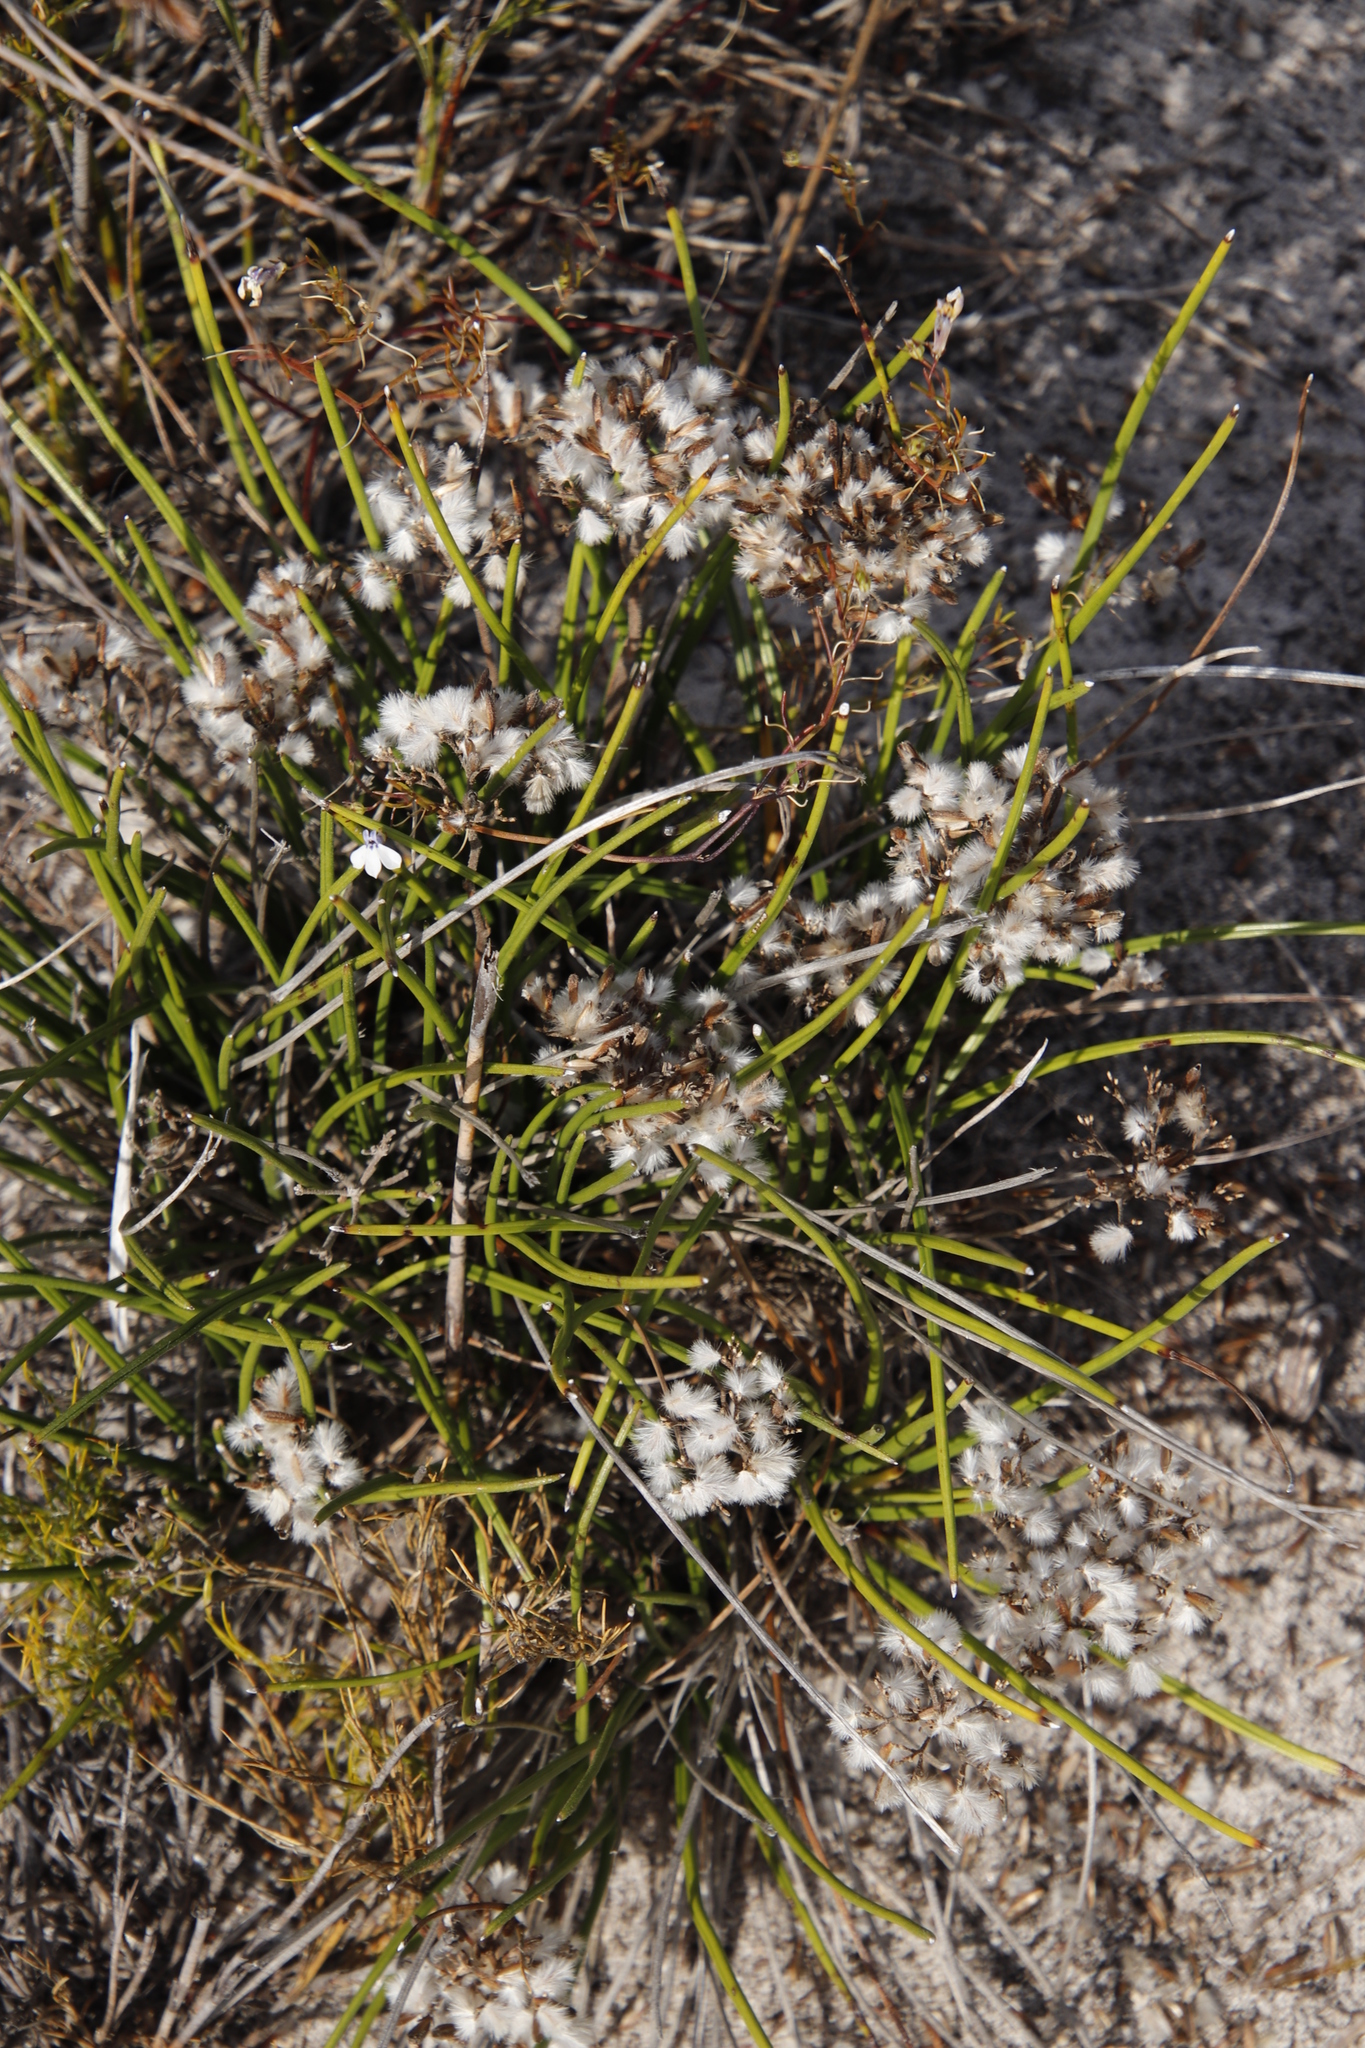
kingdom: Plantae
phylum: Tracheophyta
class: Magnoliopsida
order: Asterales
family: Asteraceae
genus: Corymbium
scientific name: Corymbium africanum
